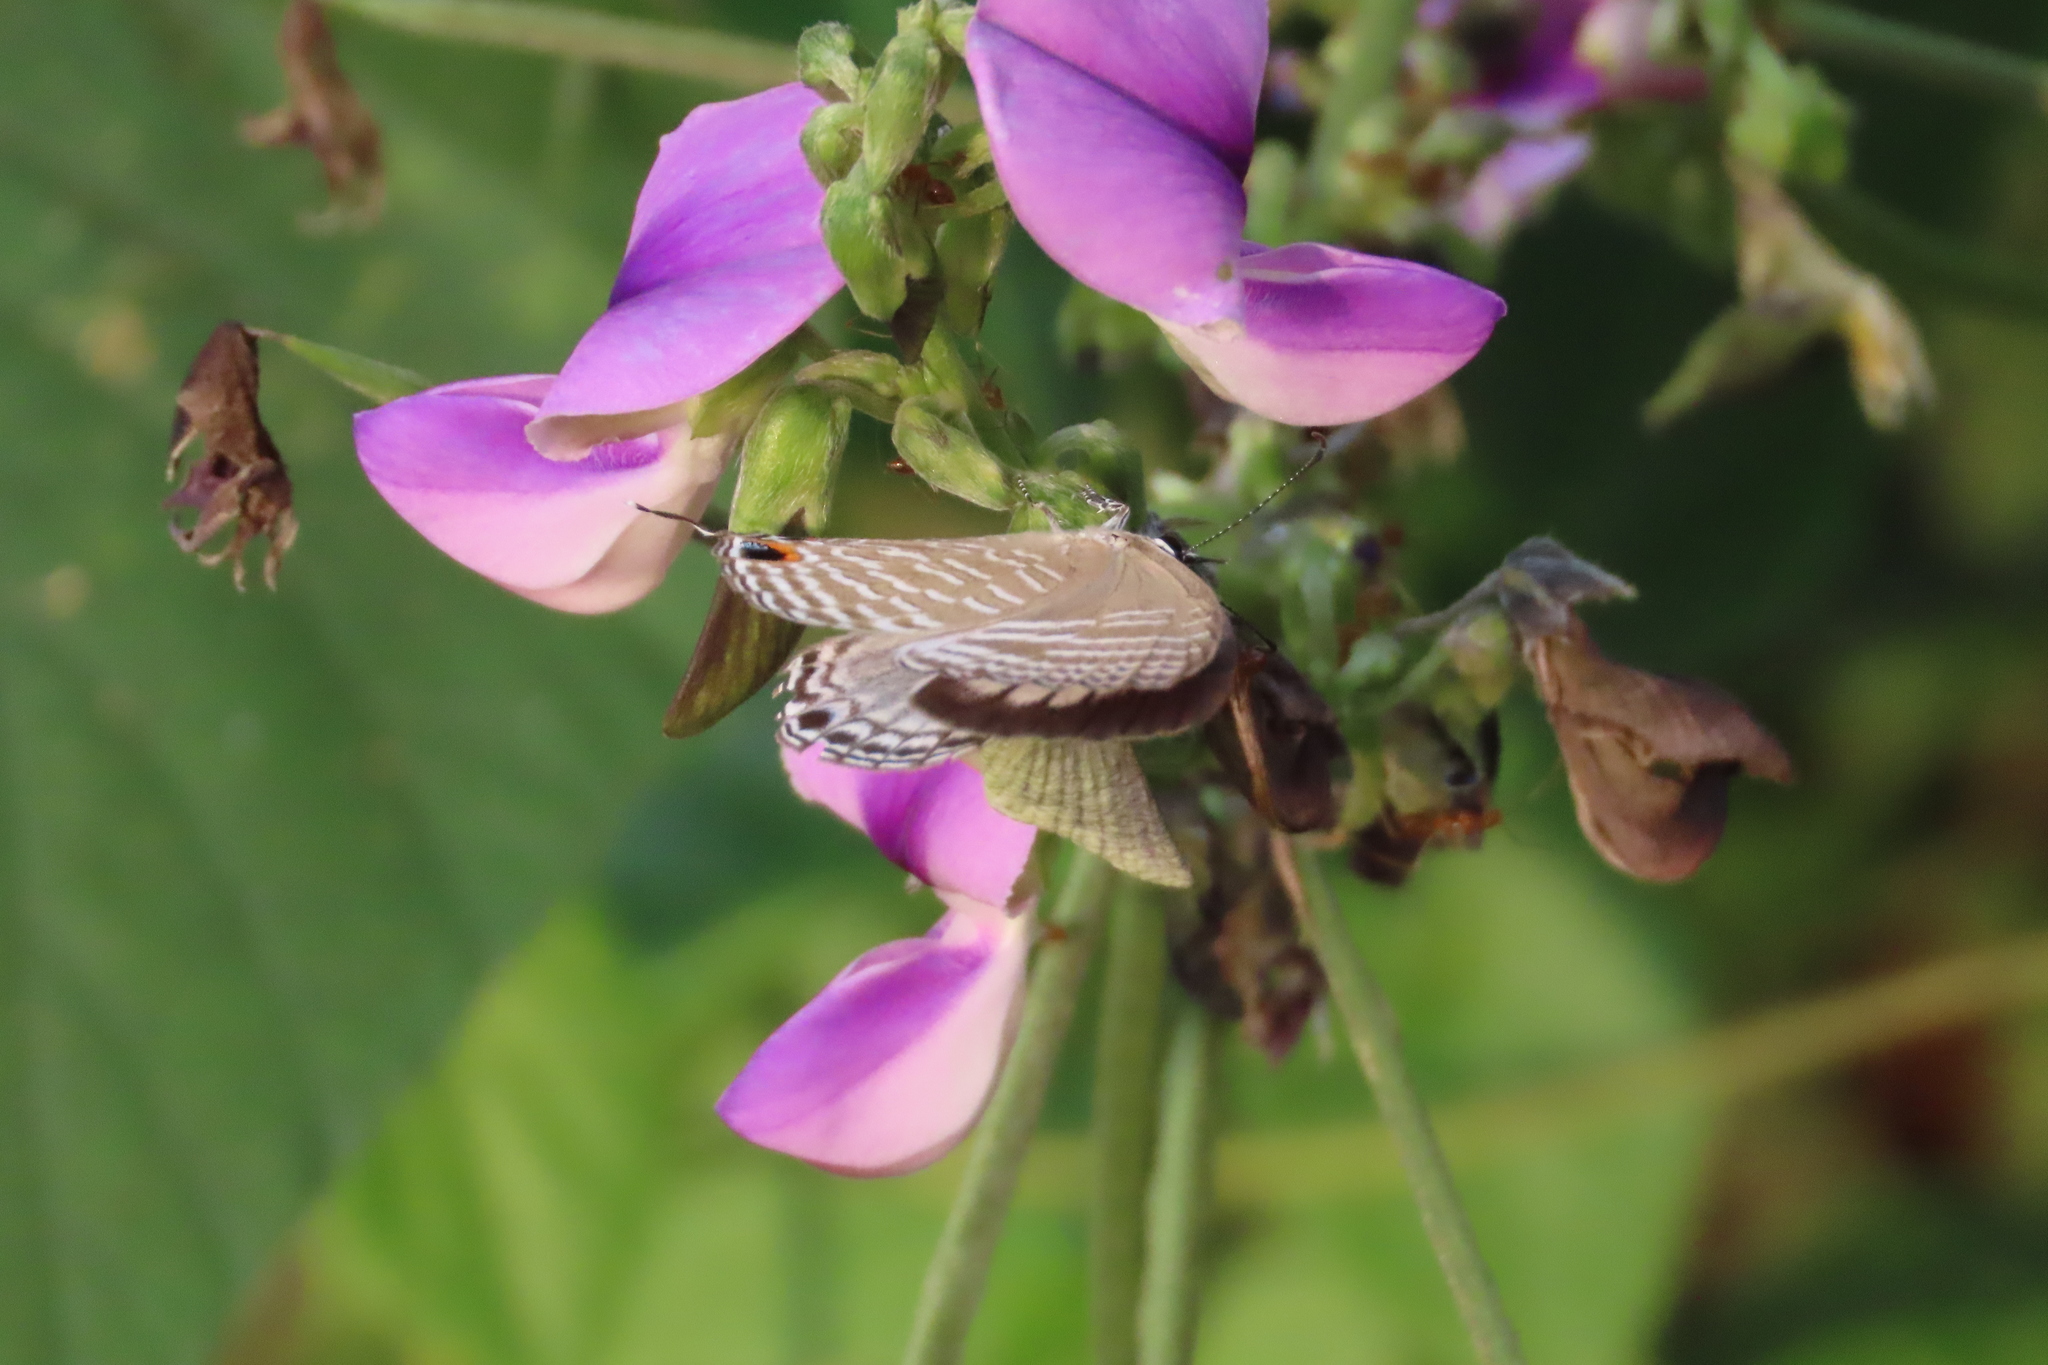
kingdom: Animalia
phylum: Arthropoda
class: Insecta
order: Lepidoptera
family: Lycaenidae
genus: Jamides
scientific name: Jamides celeno
